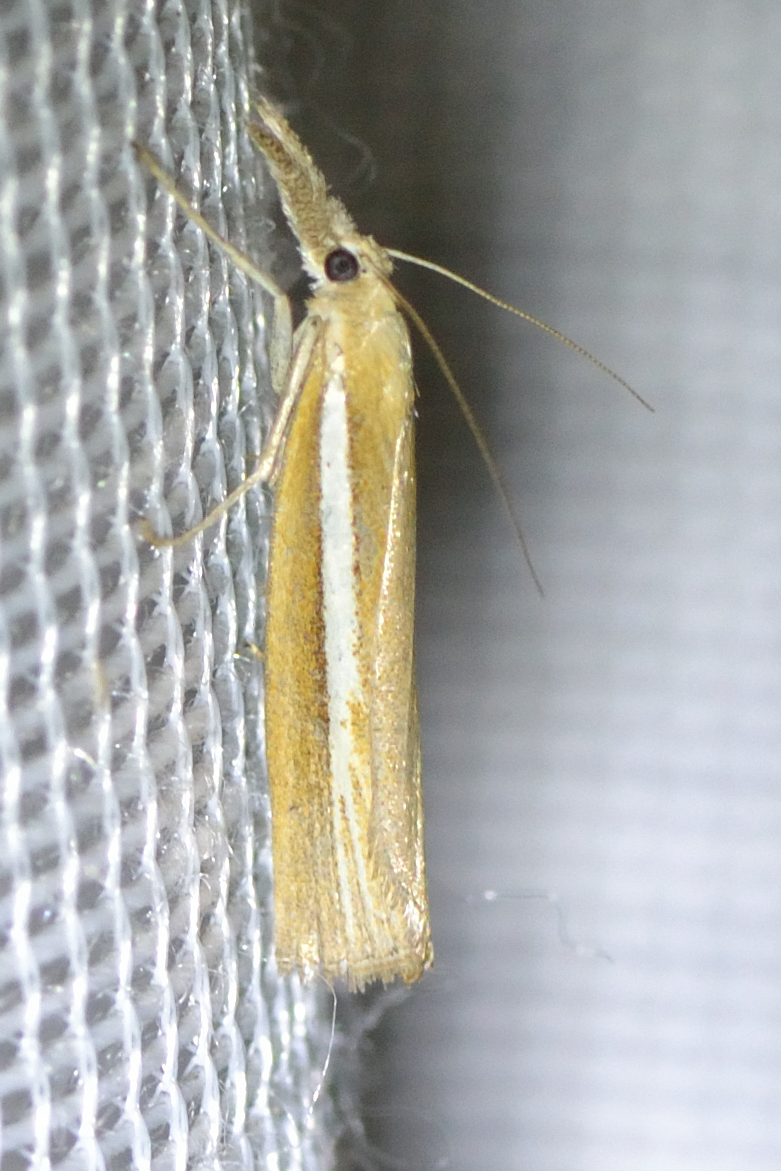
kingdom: Animalia
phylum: Arthropoda
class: Insecta
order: Lepidoptera
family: Crambidae
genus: Agriphila
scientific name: Agriphila selasella
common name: Pale-streak grass-veneer
